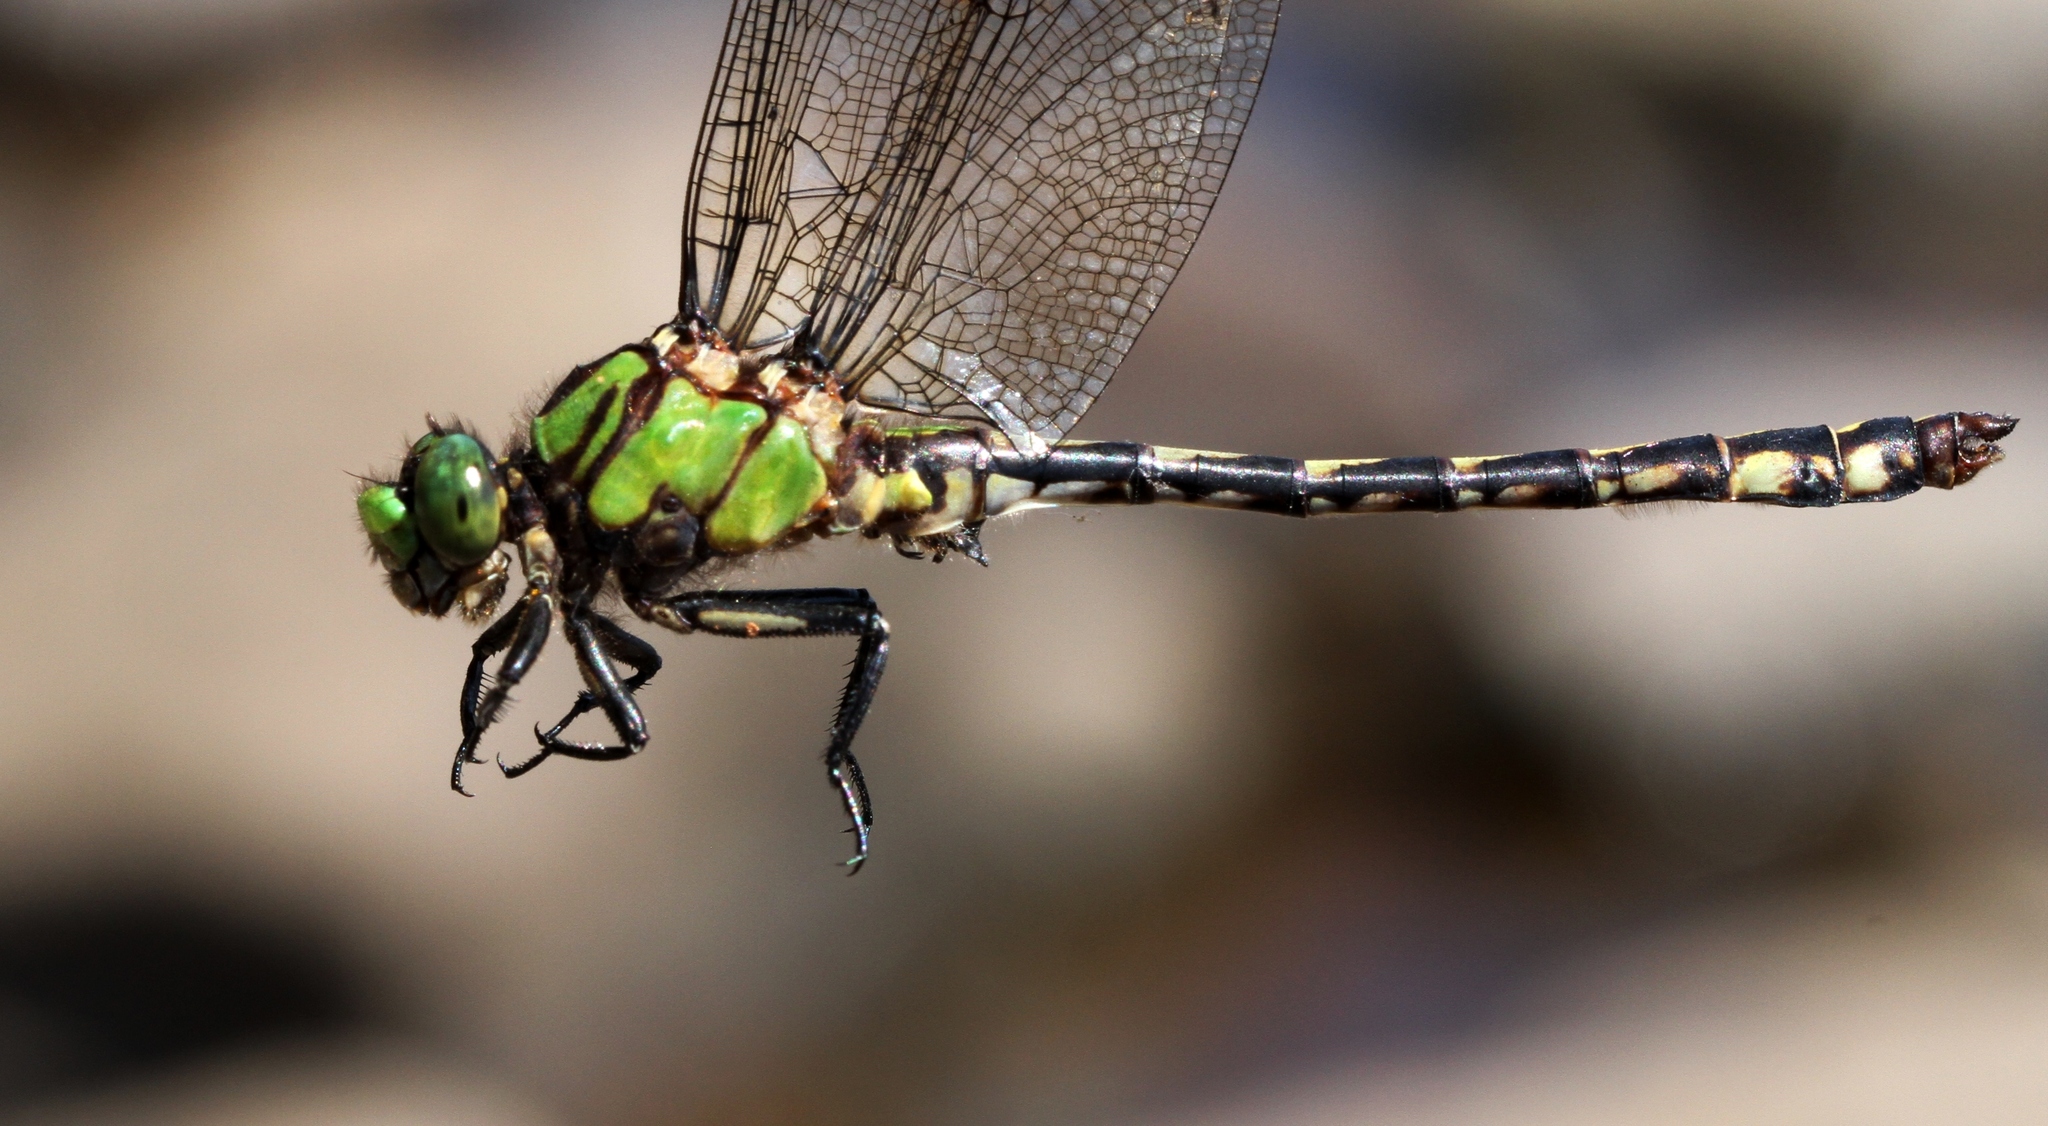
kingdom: Animalia
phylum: Arthropoda
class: Insecta
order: Odonata
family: Gomphidae
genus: Ophiogomphus
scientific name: Ophiogomphus aspersus
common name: Brook snaketail
